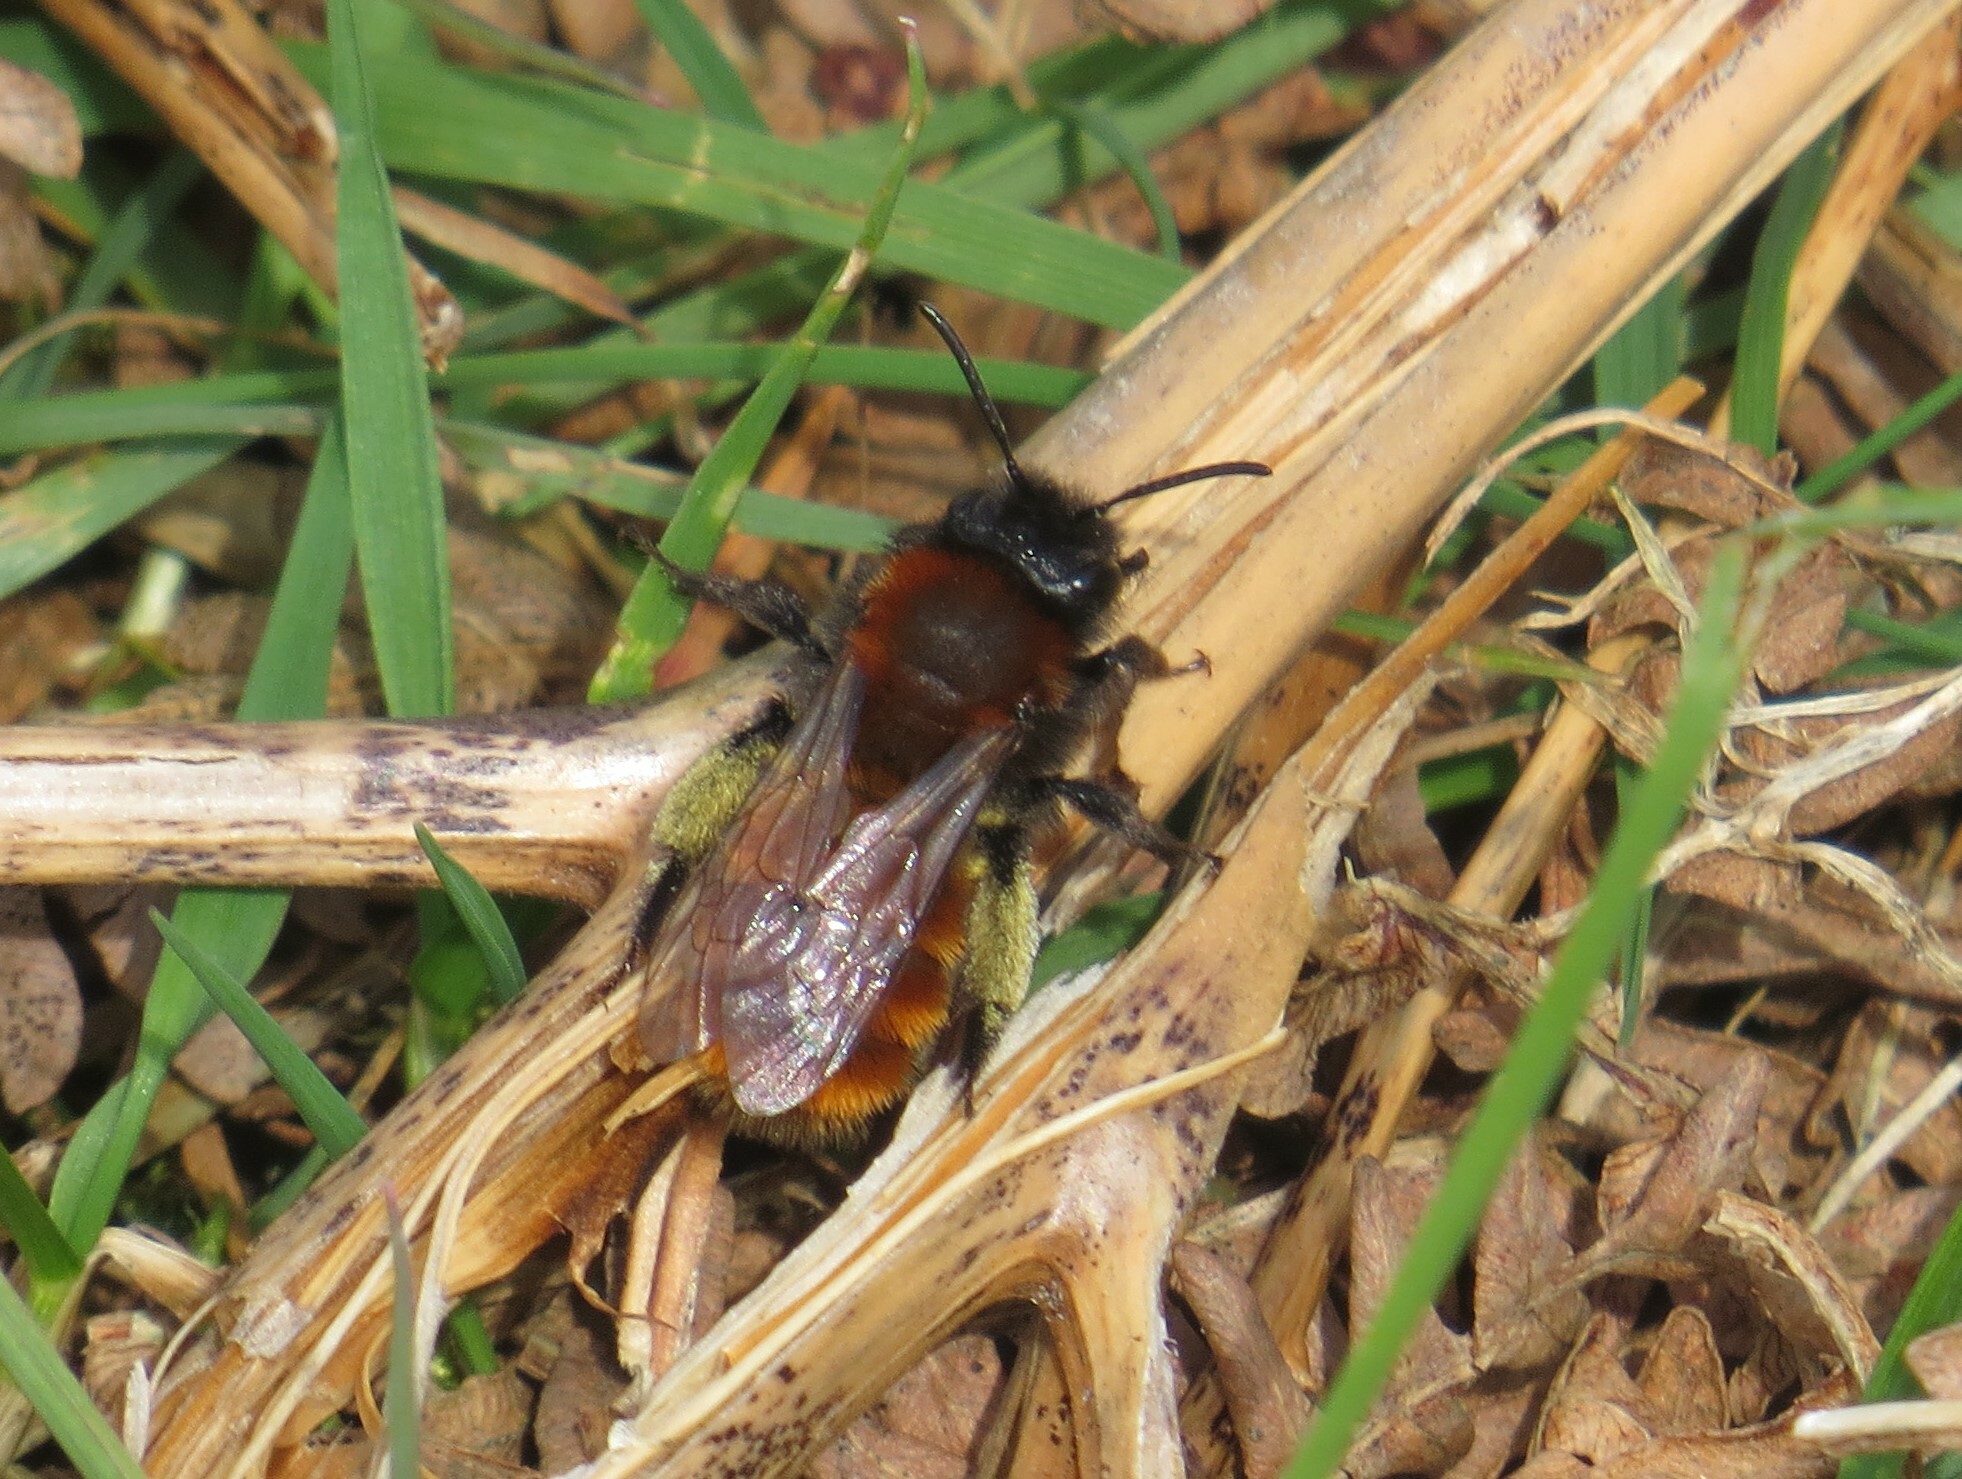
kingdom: Animalia
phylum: Arthropoda
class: Insecta
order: Hymenoptera
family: Andrenidae
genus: Andrena
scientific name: Andrena fulva
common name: Tawny mining bee
